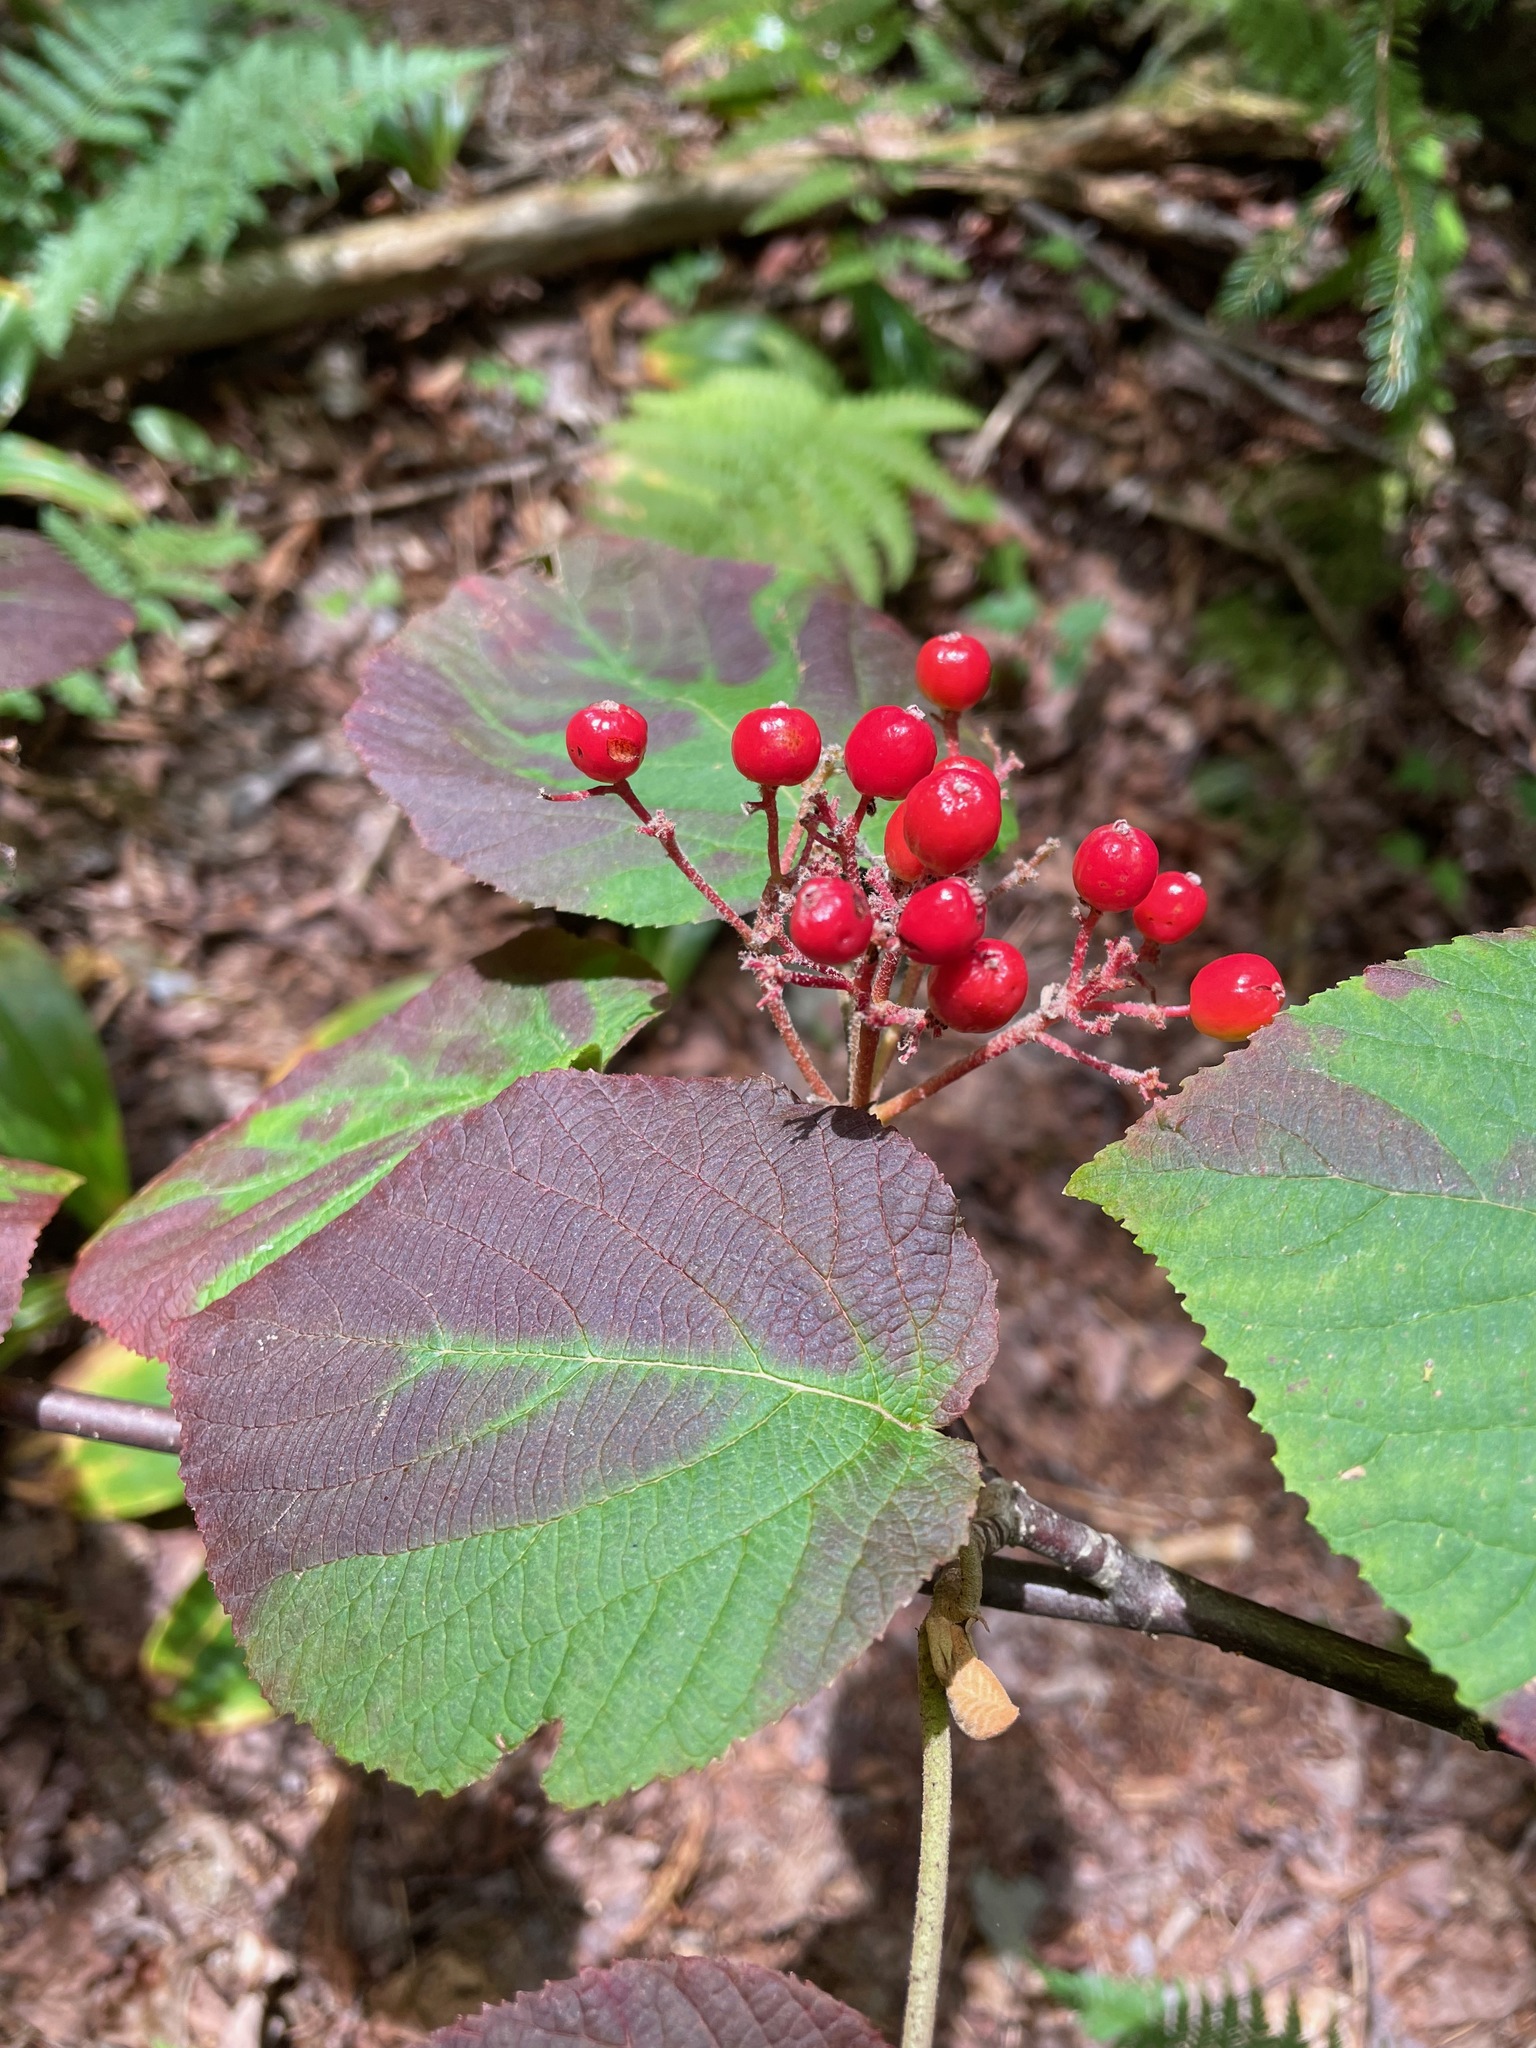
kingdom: Plantae
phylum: Tracheophyta
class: Magnoliopsida
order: Dipsacales
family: Viburnaceae
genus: Viburnum
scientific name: Viburnum lantanoides
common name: Hobblebush
